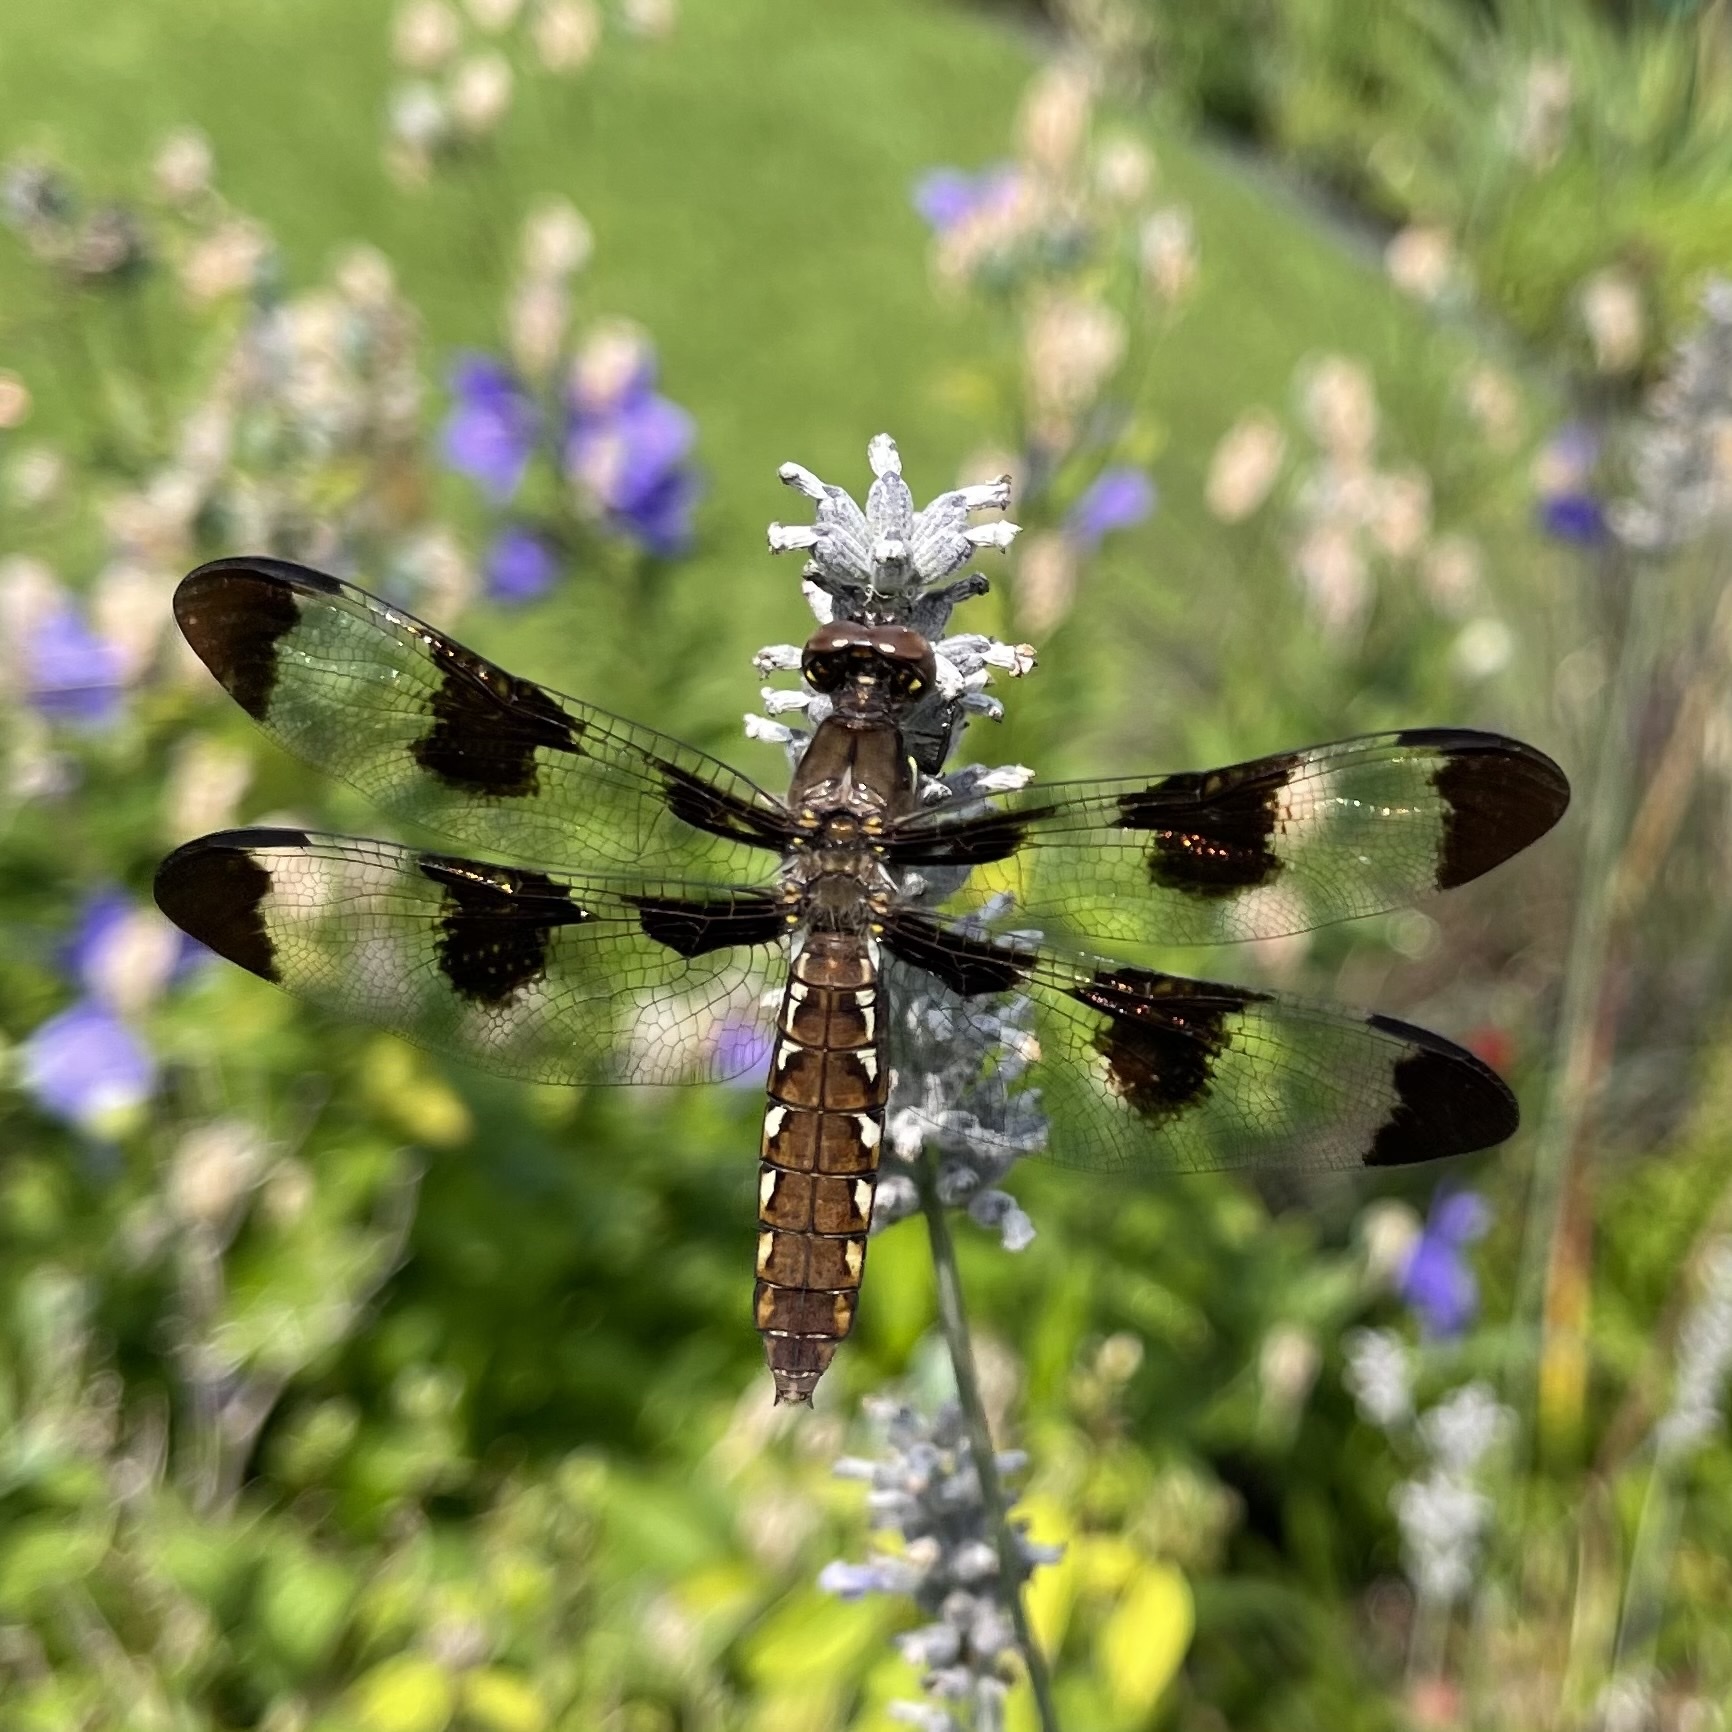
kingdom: Animalia
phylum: Arthropoda
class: Insecta
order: Odonata
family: Libellulidae
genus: Plathemis
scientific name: Plathemis lydia
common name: Common whitetail
